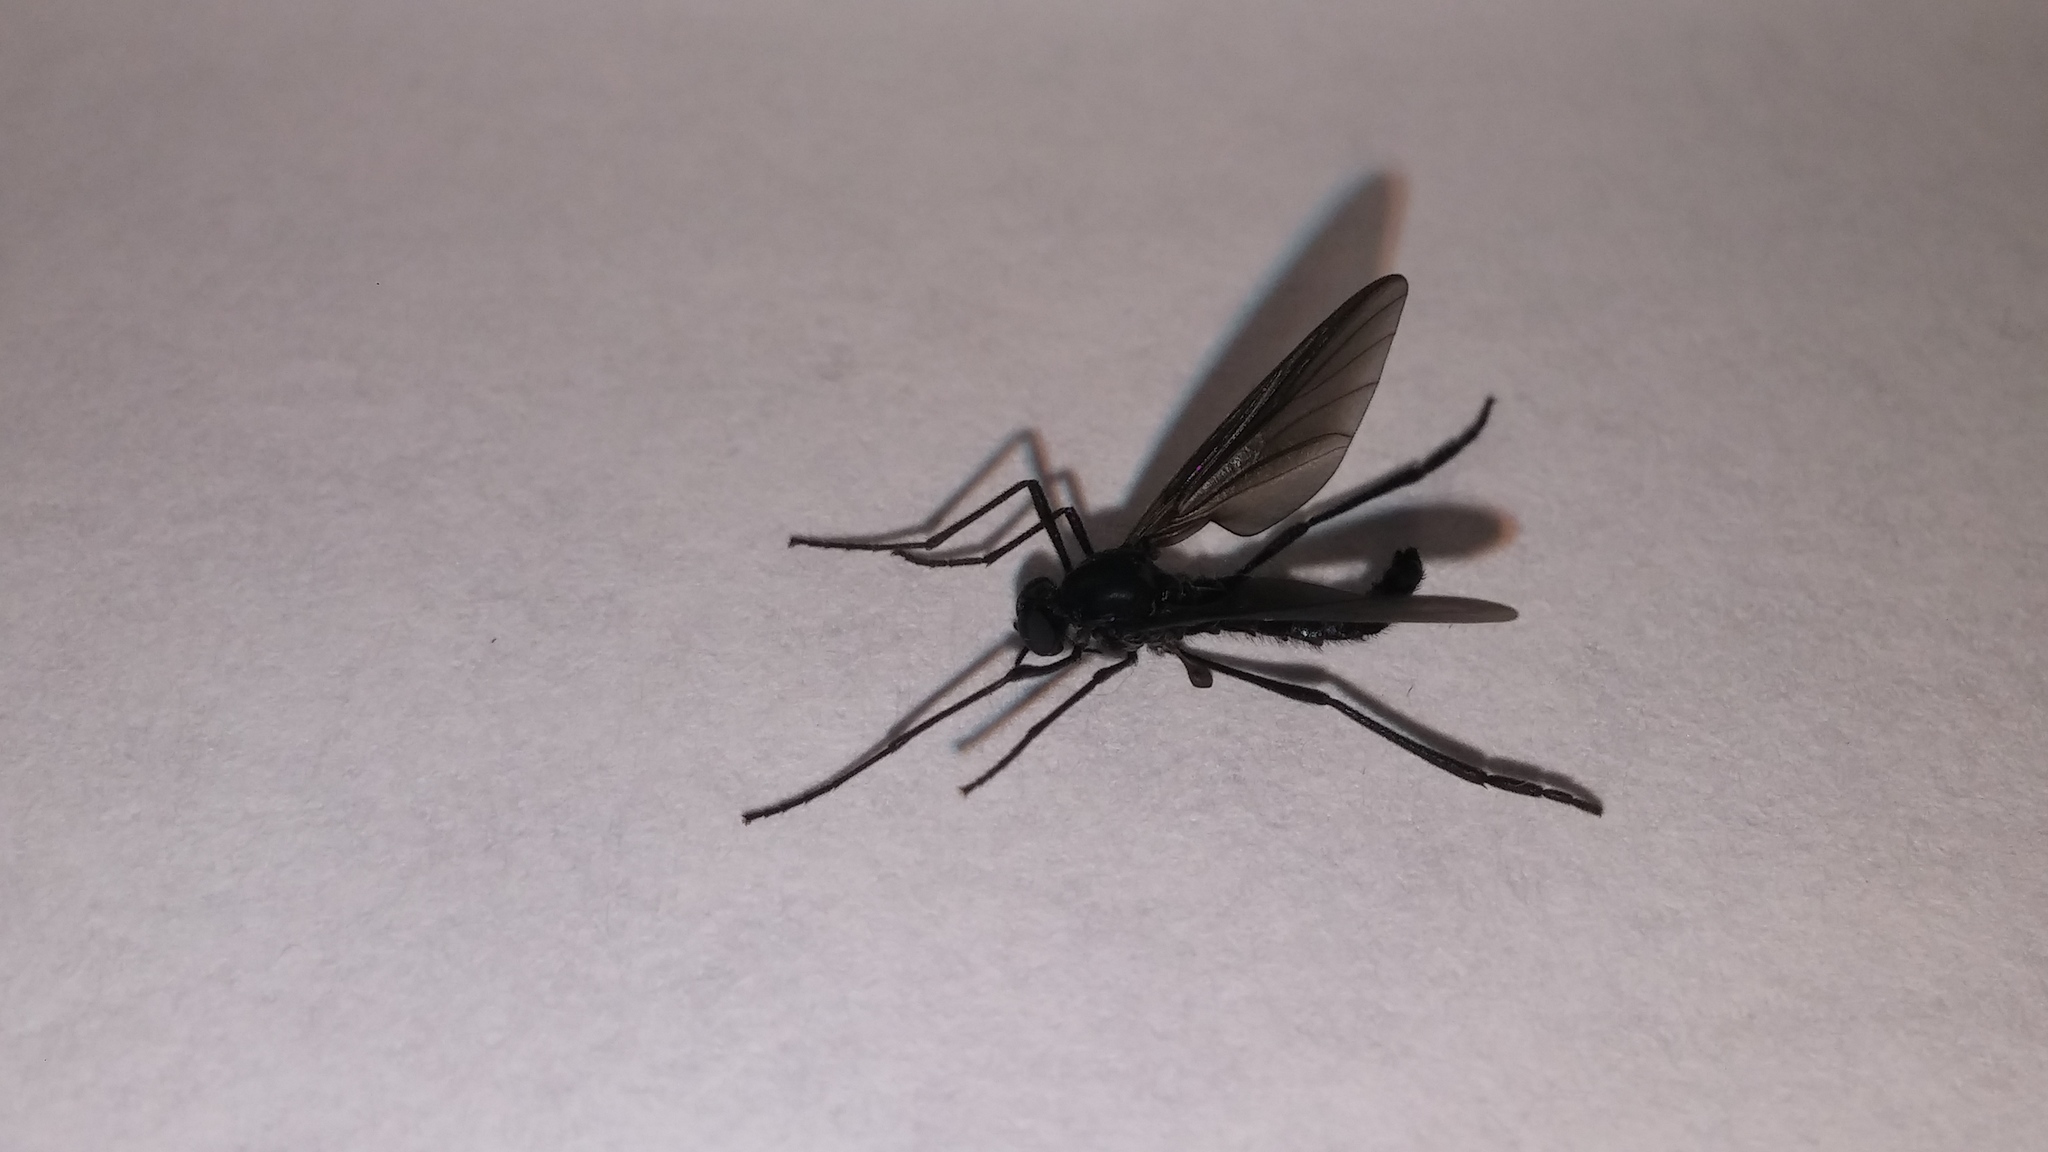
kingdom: Animalia
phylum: Arthropoda
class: Insecta
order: Diptera
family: Bibionidae
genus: Penthetria
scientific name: Penthetria heteroptera
